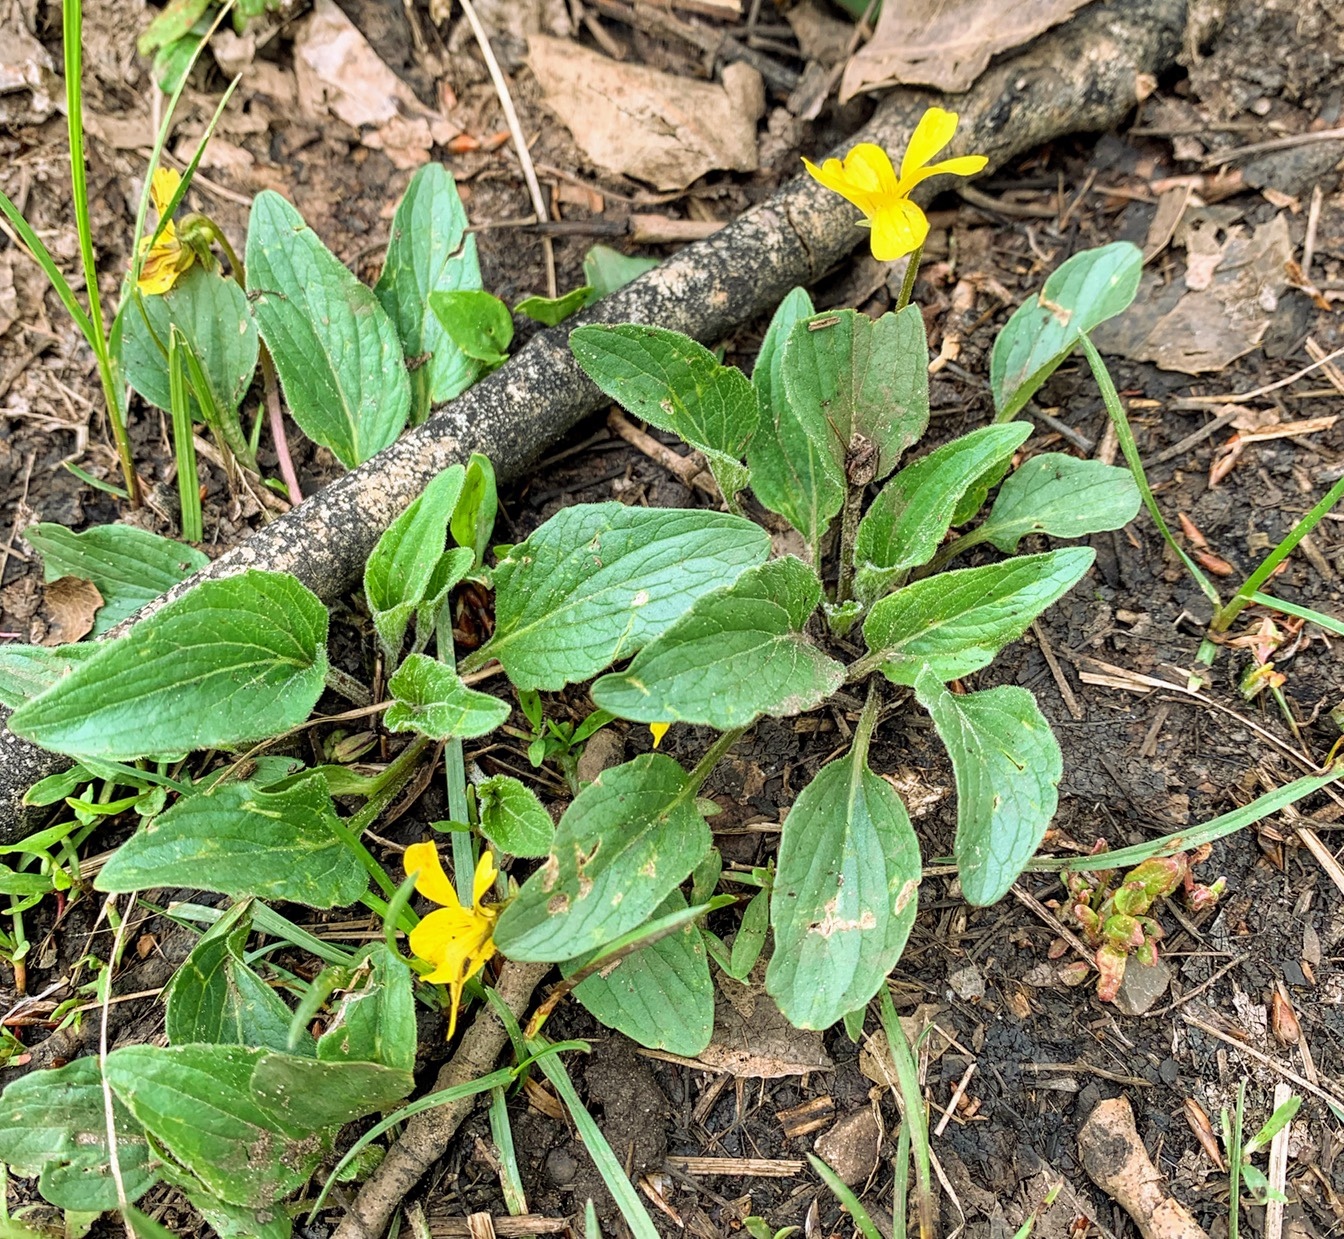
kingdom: Plantae
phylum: Tracheophyta
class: Magnoliopsida
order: Malpighiales
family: Violaceae
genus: Viola
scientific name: Viola praemorsa
